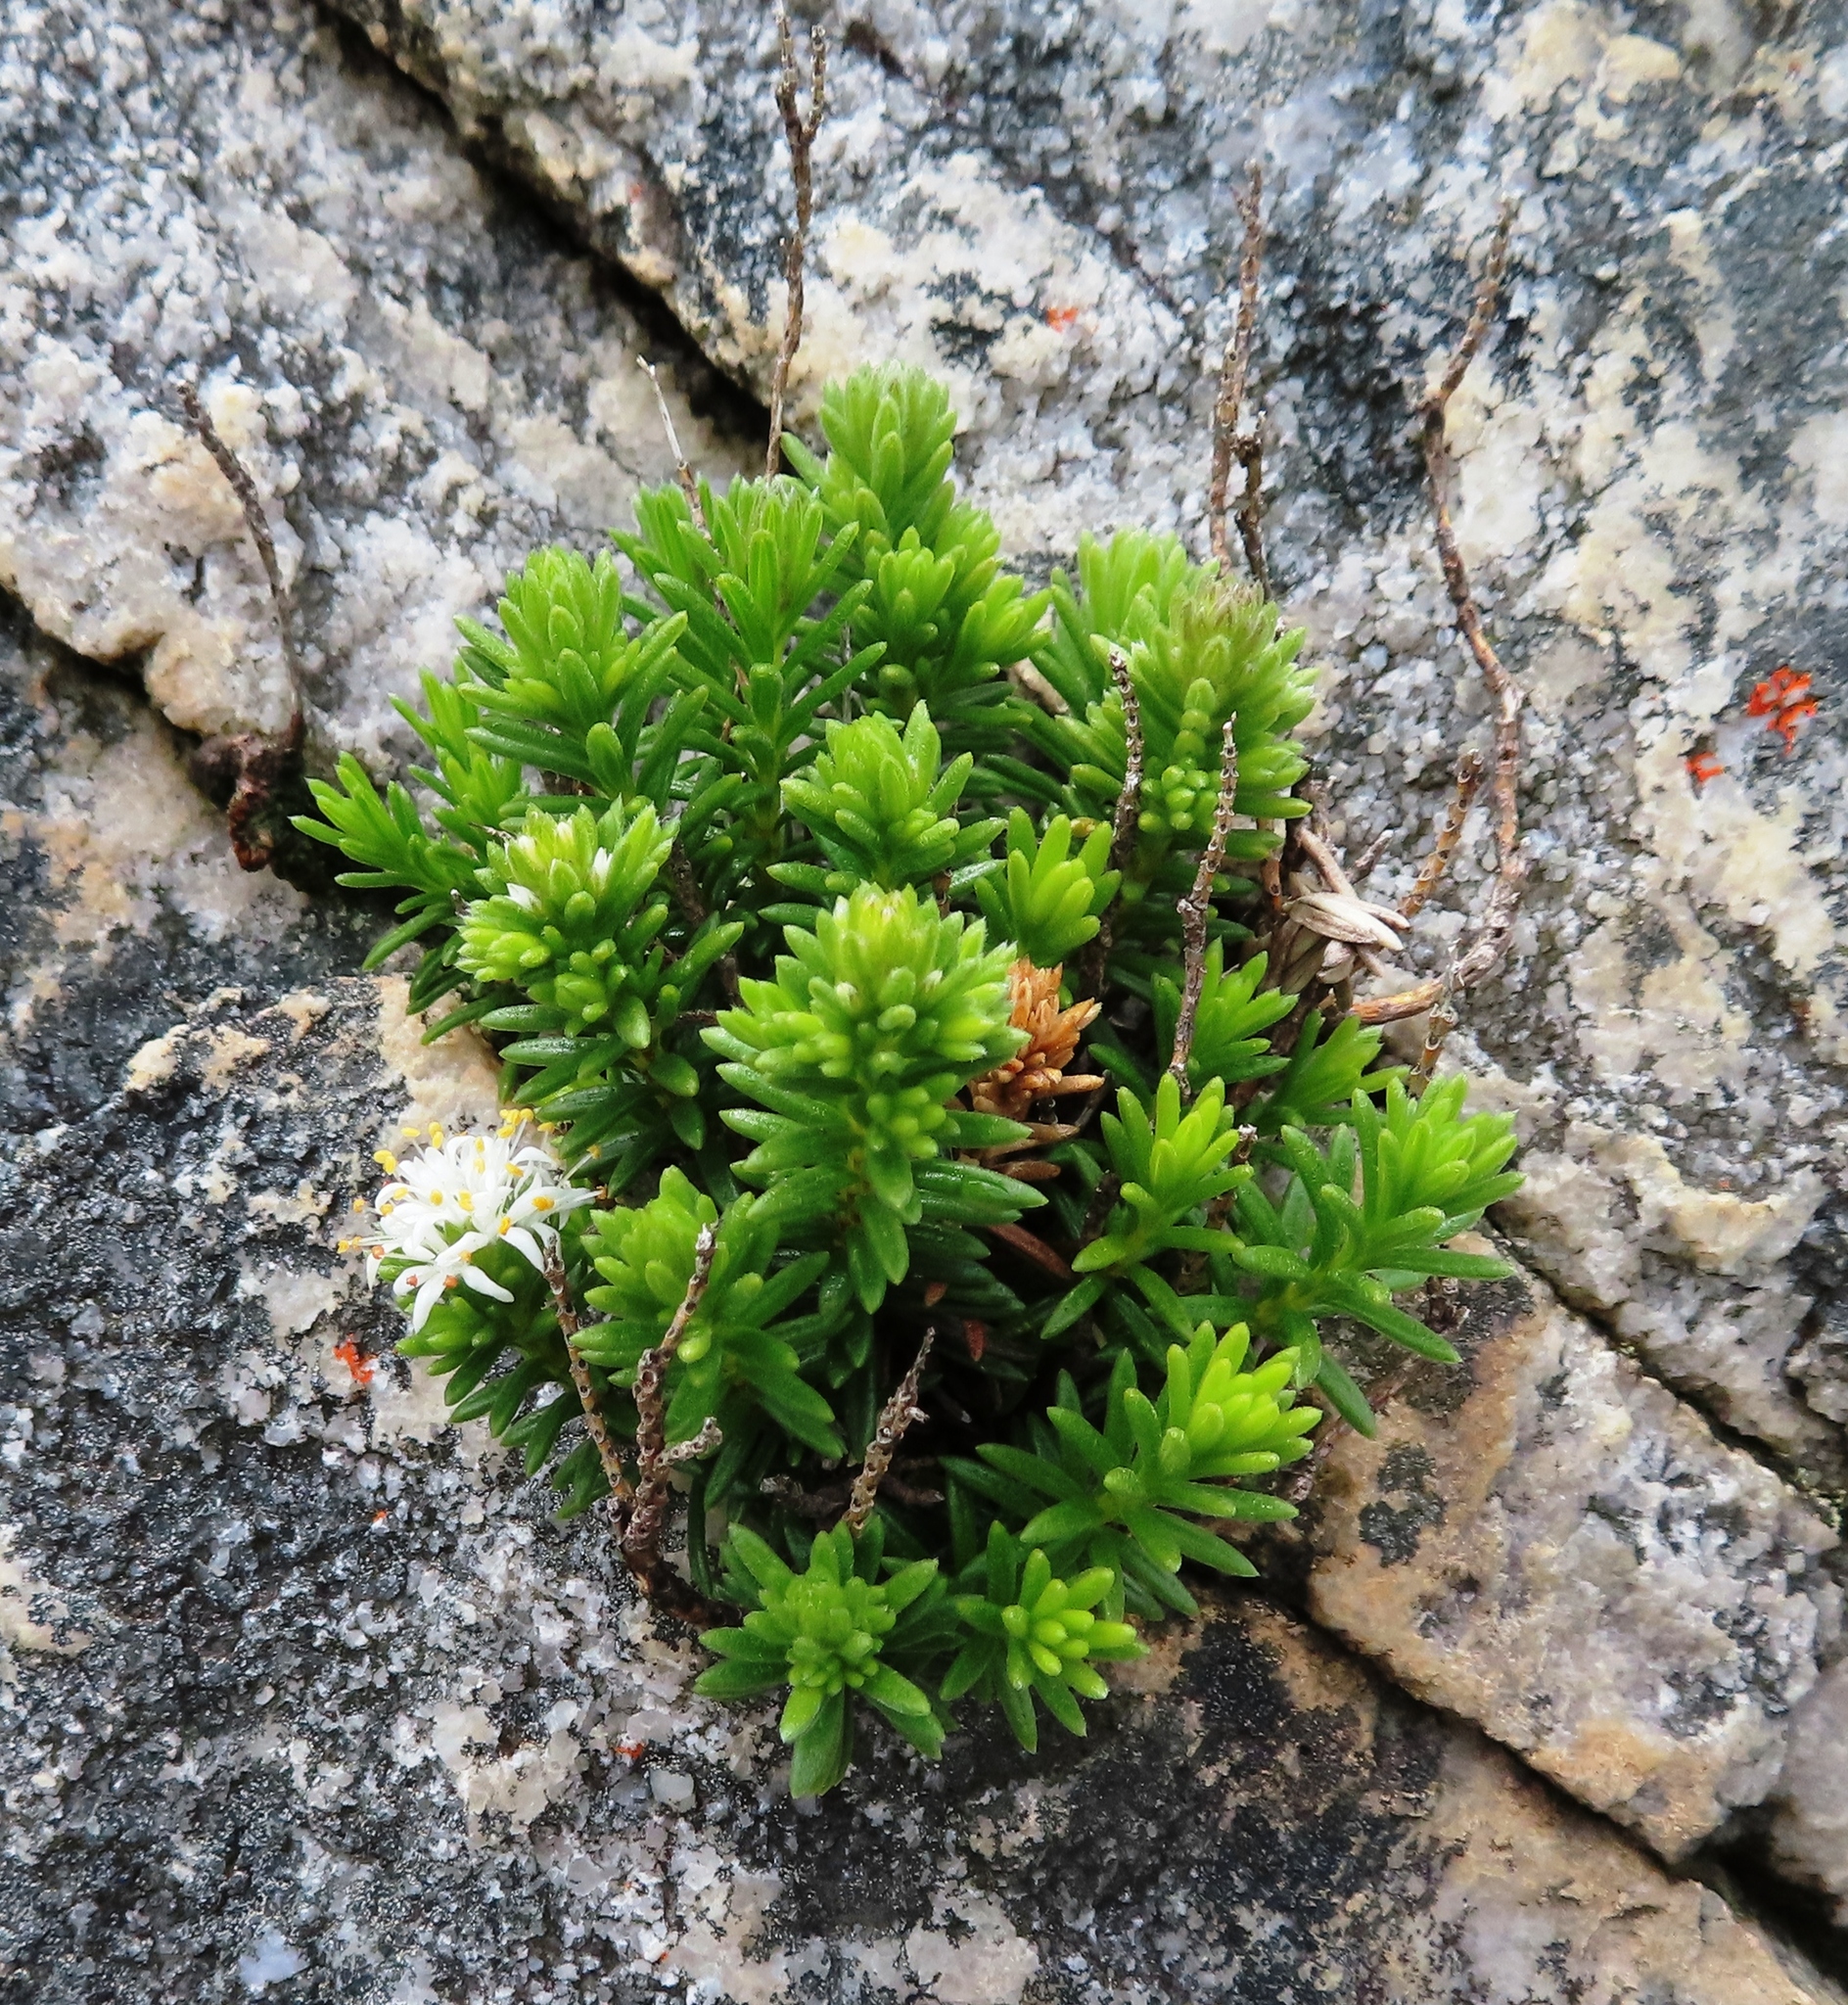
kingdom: Plantae
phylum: Tracheophyta
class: Magnoliopsida
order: Lamiales
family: Stilbaceae
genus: Stilbe
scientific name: Stilbe rupestris
